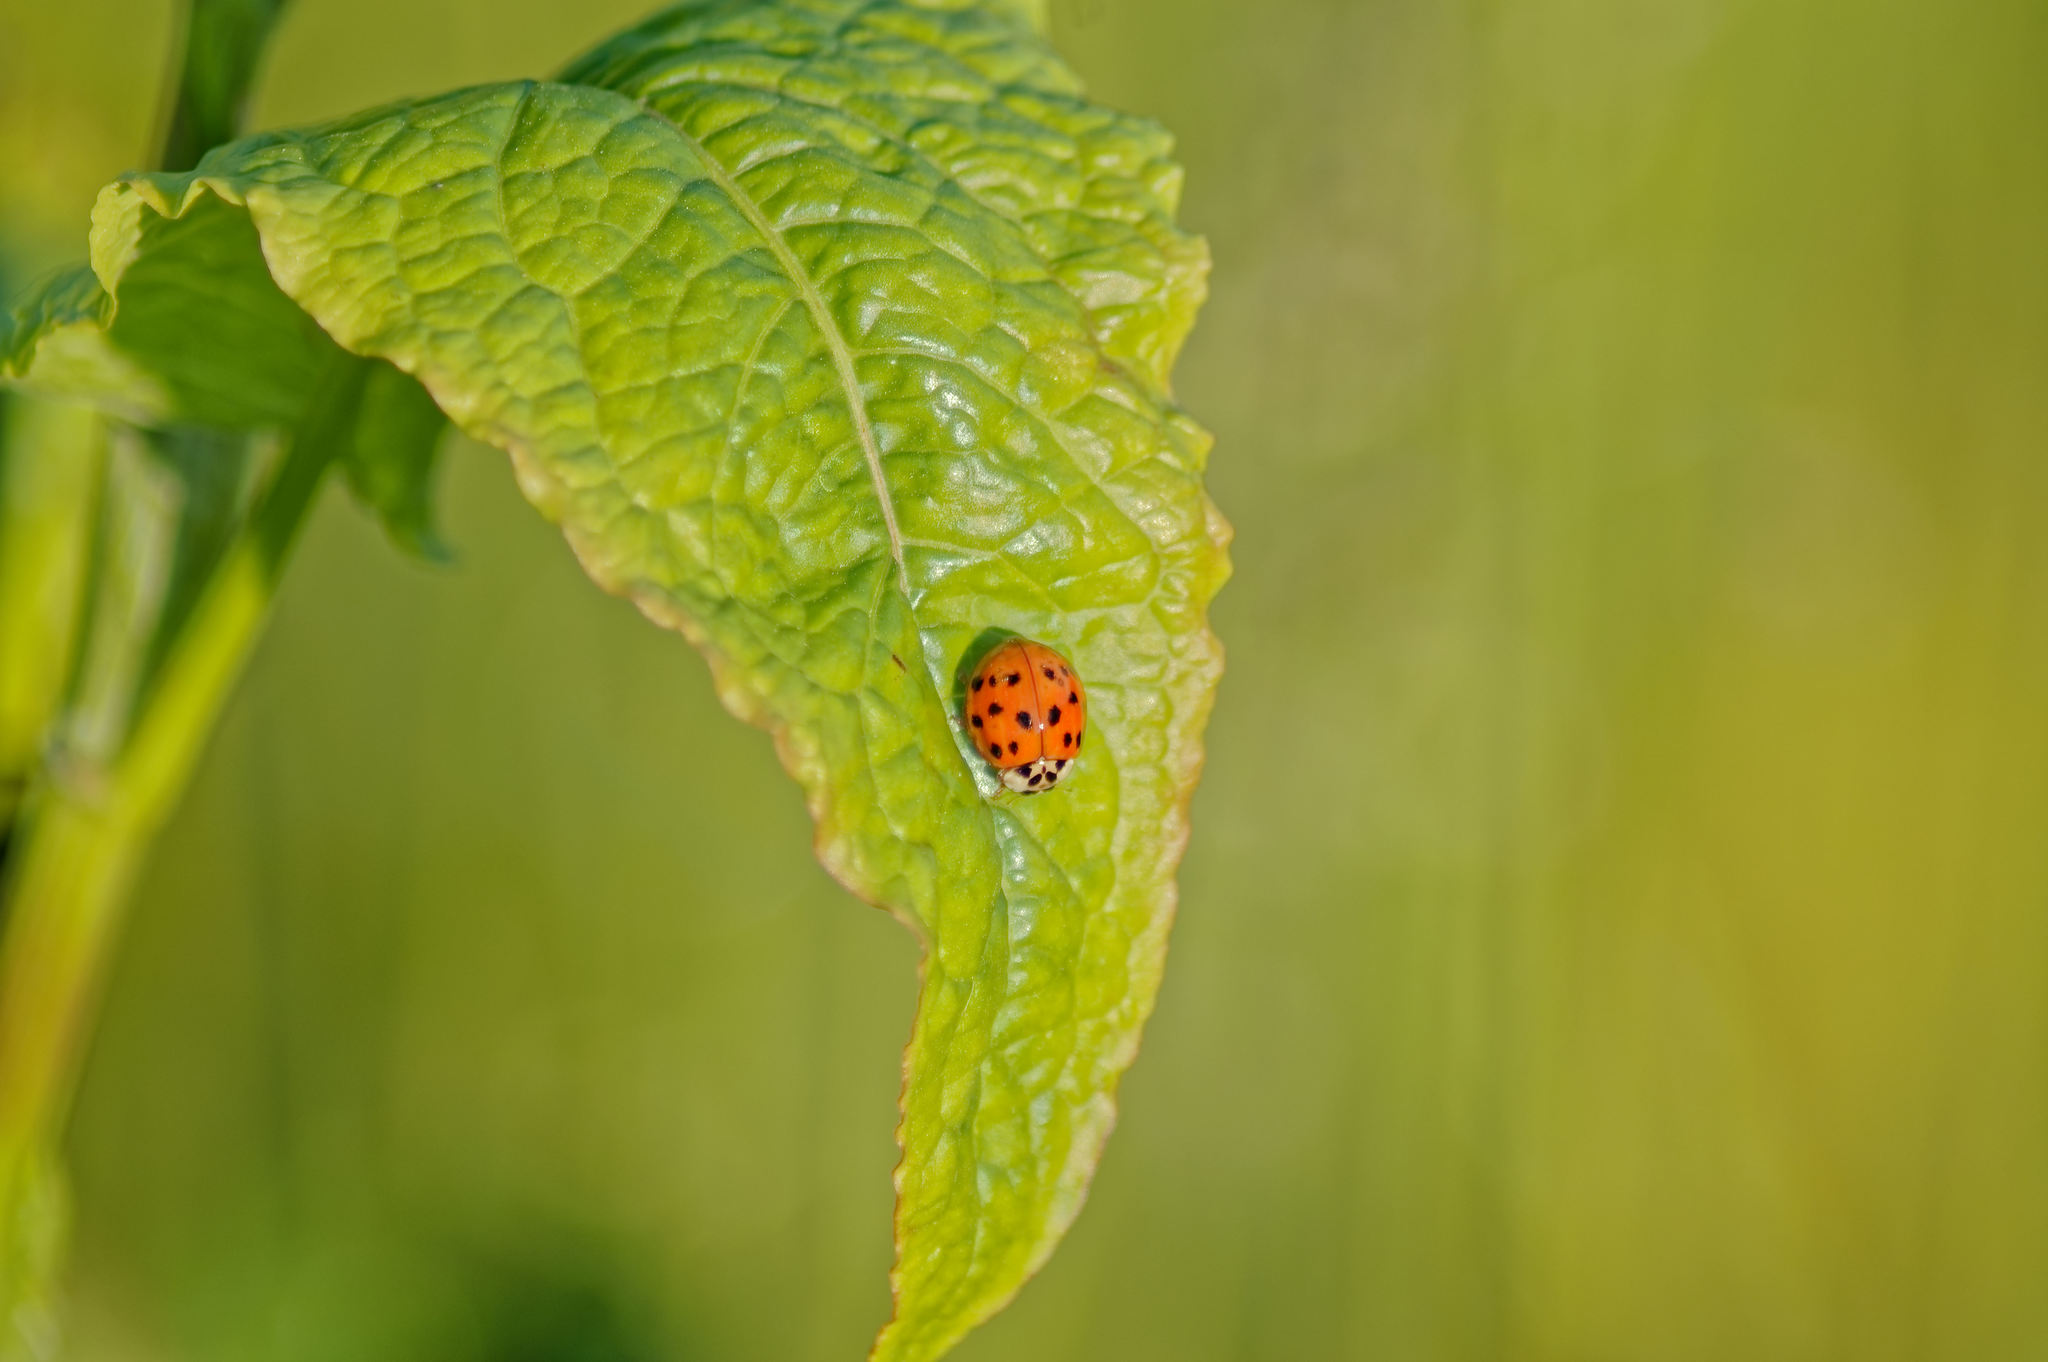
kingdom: Animalia
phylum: Arthropoda
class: Insecta
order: Coleoptera
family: Coccinellidae
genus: Harmonia
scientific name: Harmonia axyridis
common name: Harlequin ladybird
